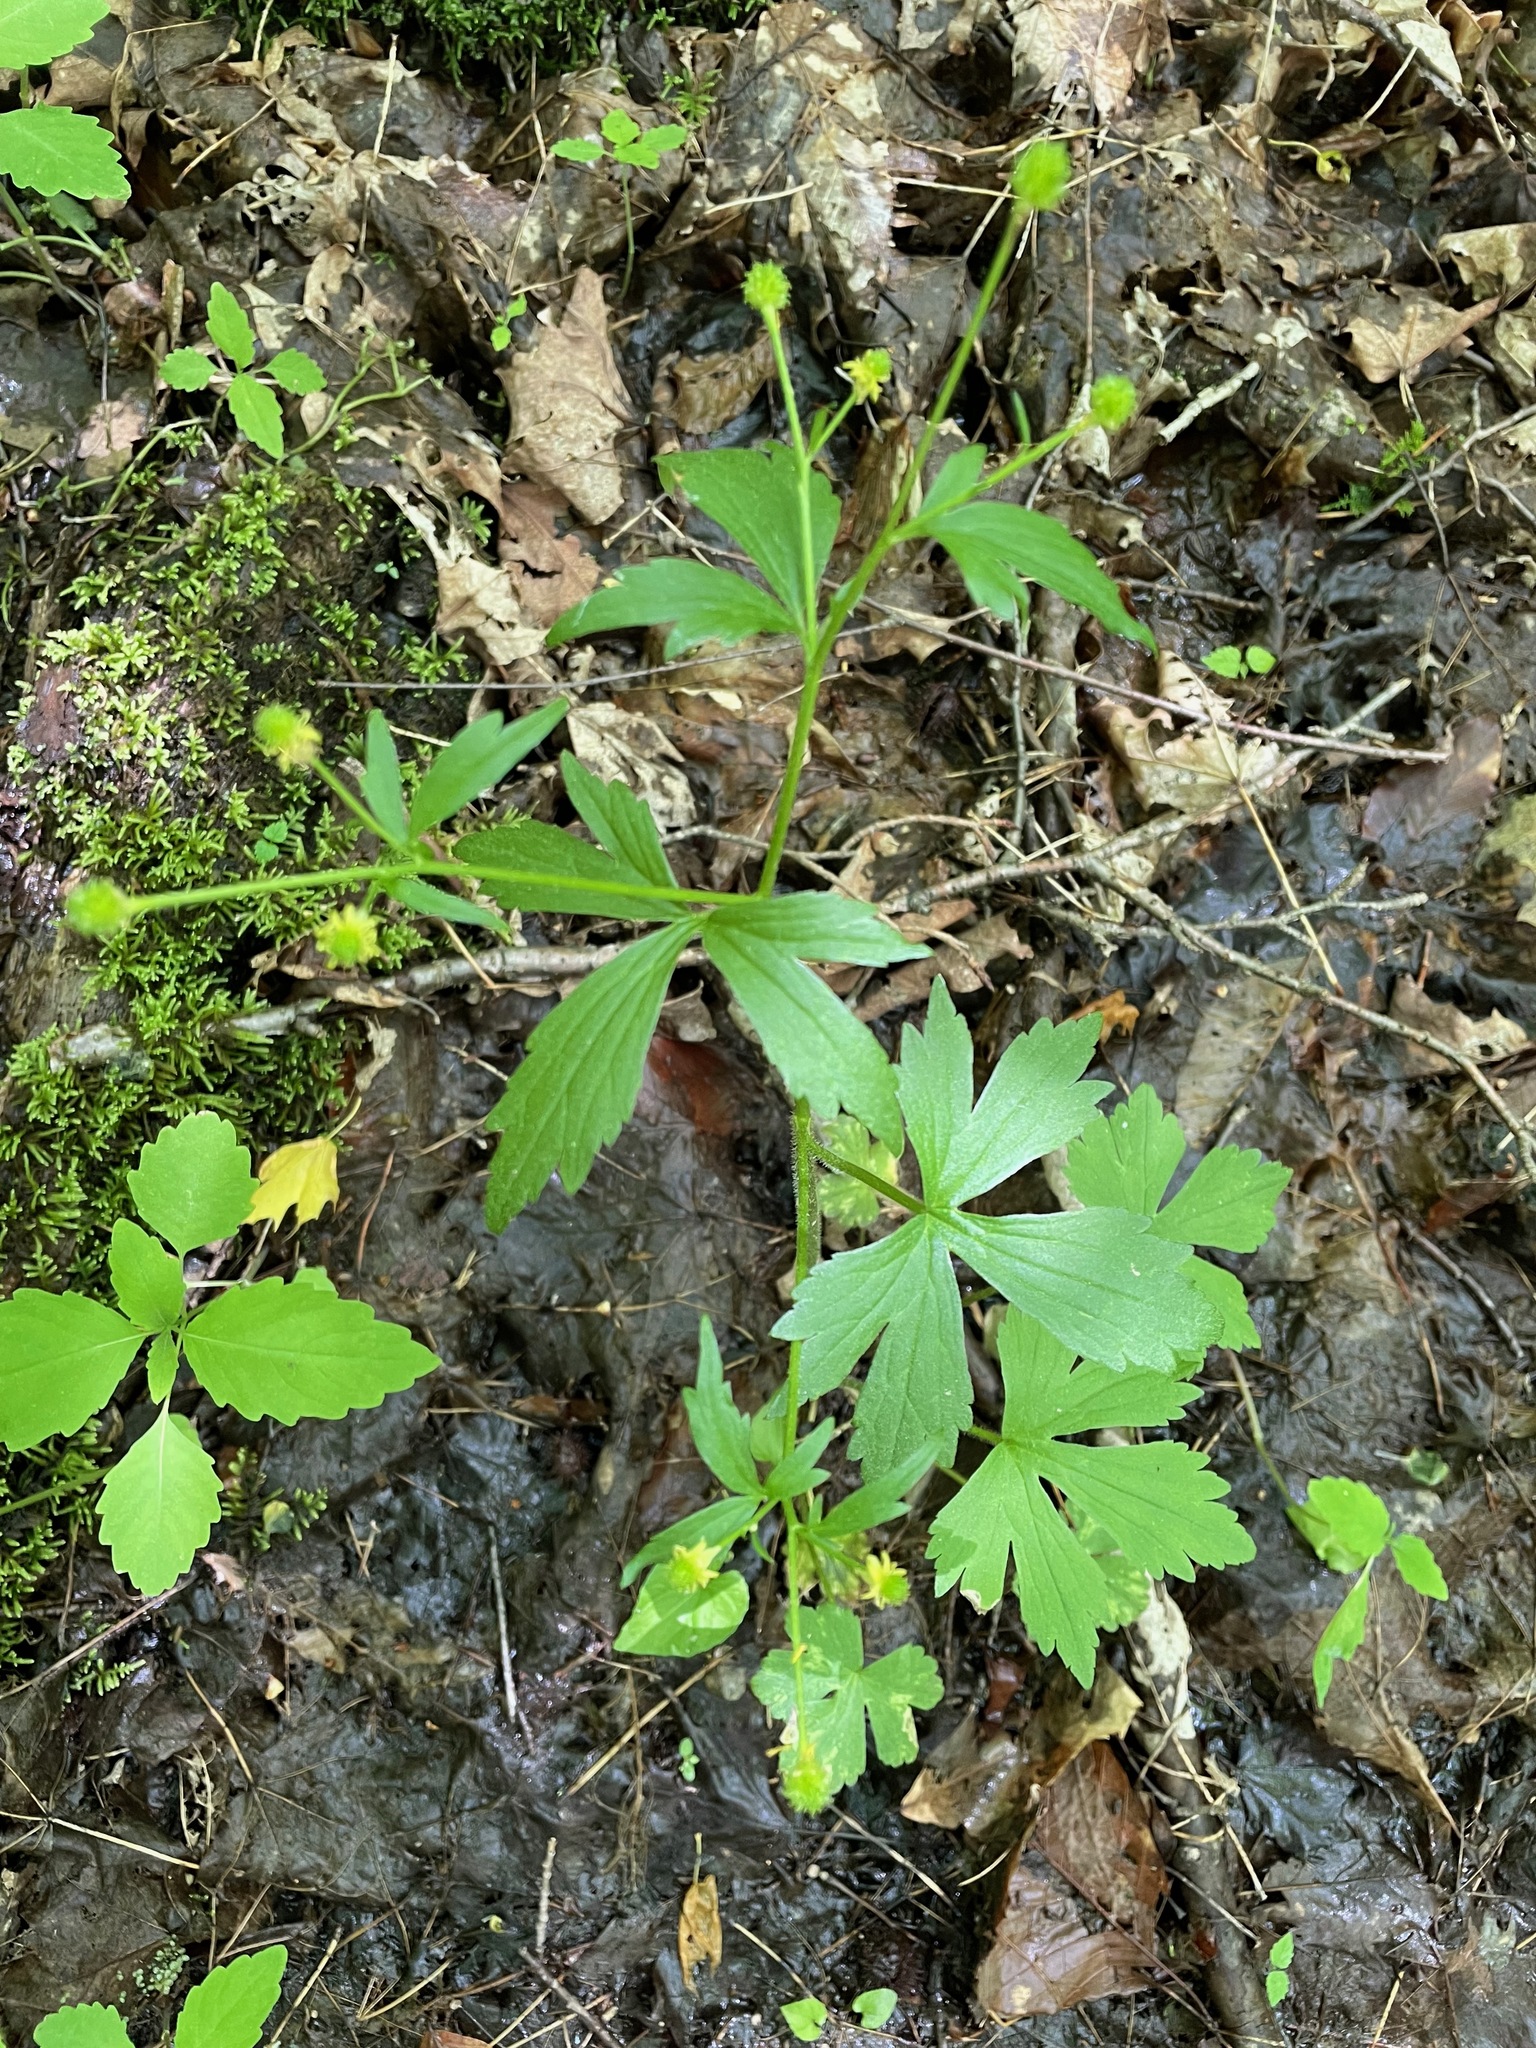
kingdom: Plantae
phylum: Tracheophyta
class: Magnoliopsida
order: Ranunculales
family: Ranunculaceae
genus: Ranunculus
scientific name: Ranunculus recurvatus
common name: Blisterwort
